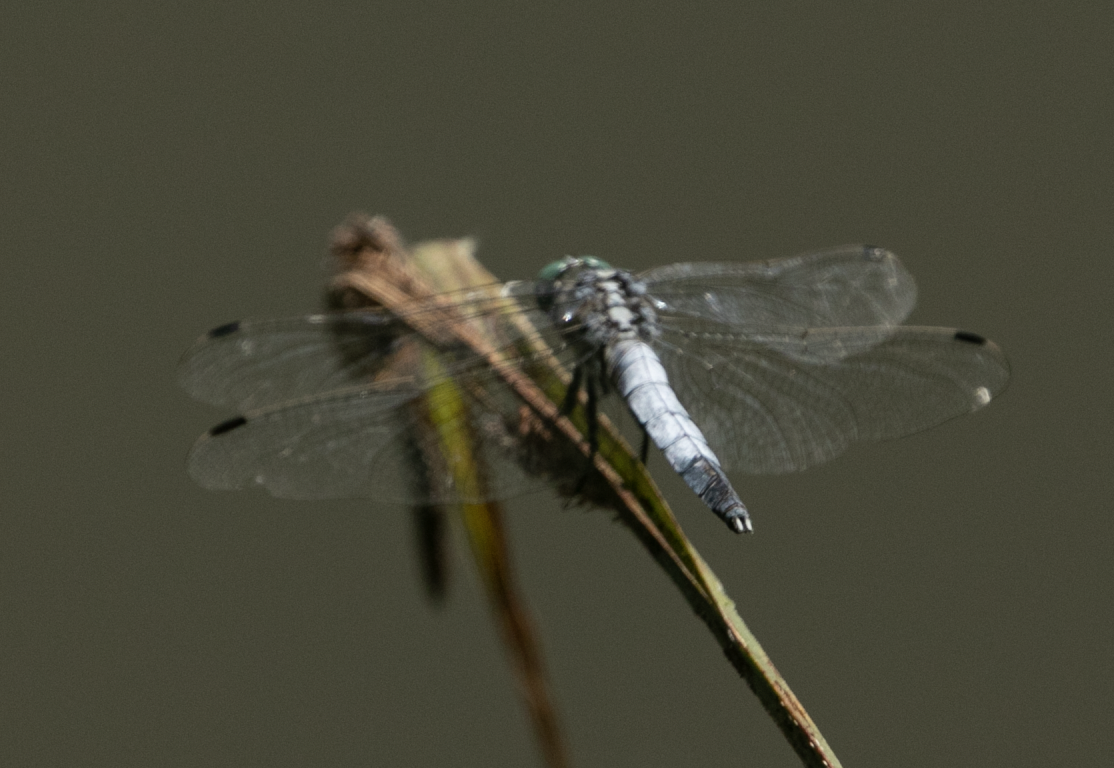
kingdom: Animalia
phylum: Arthropoda
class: Insecta
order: Odonata
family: Libellulidae
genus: Orthetrum
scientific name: Orthetrum albistylum
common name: White-tailed skimmer
